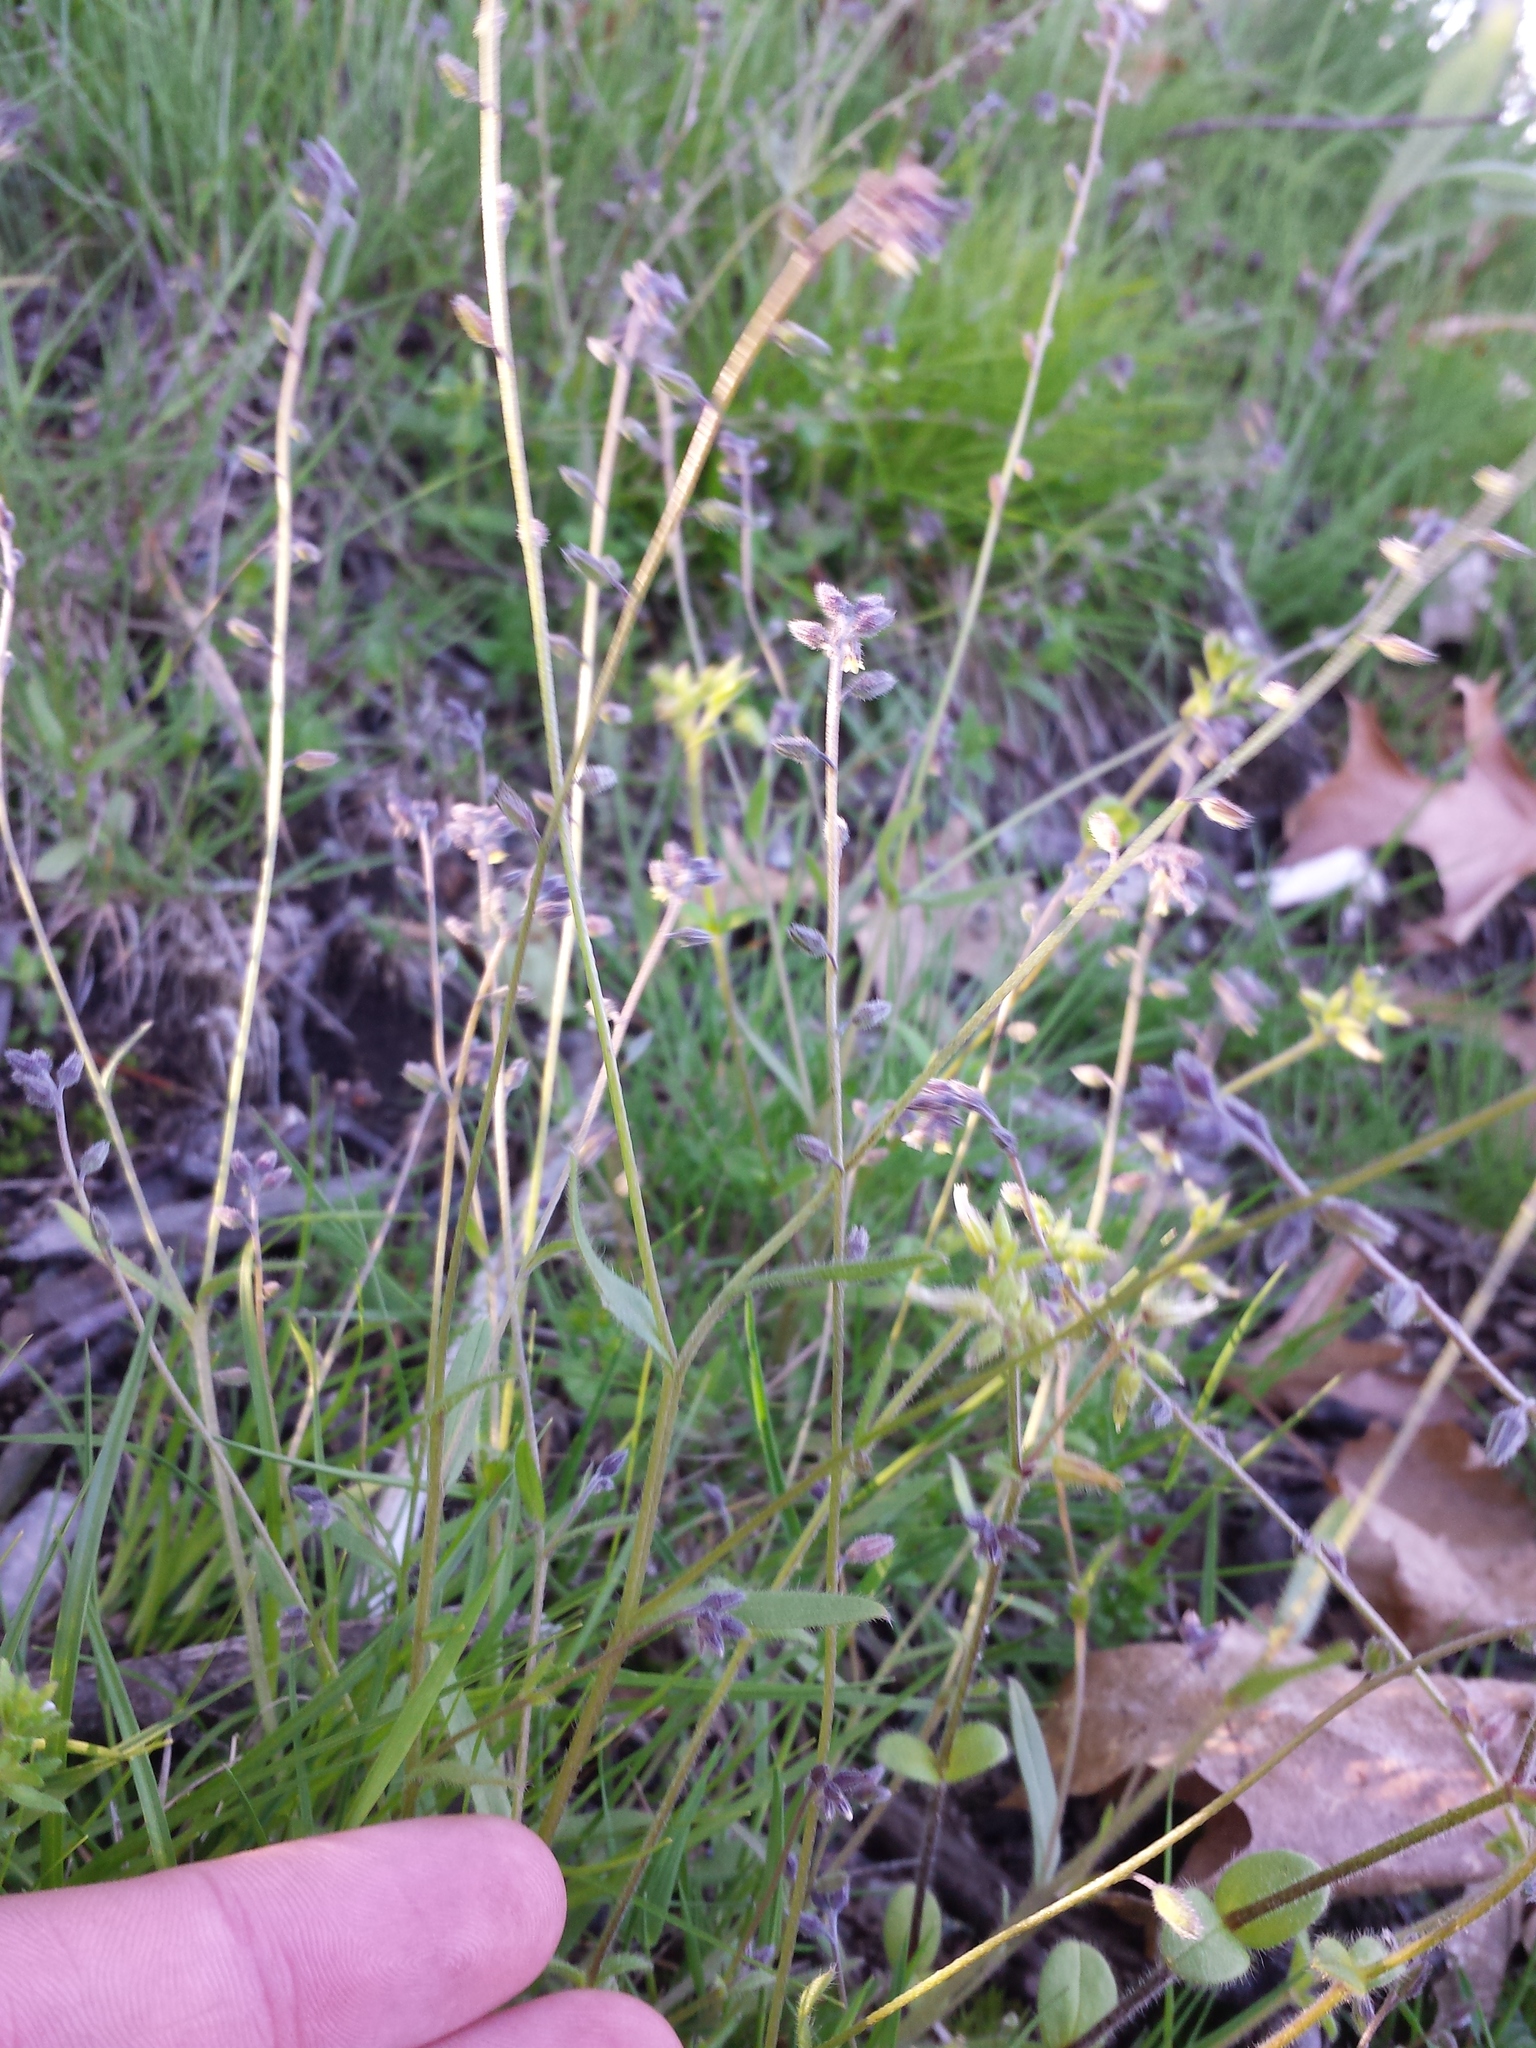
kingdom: Plantae
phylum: Tracheophyta
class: Magnoliopsida
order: Boraginales
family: Boraginaceae
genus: Myosotis
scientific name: Myosotis discolor
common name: Changing forget-me-not
